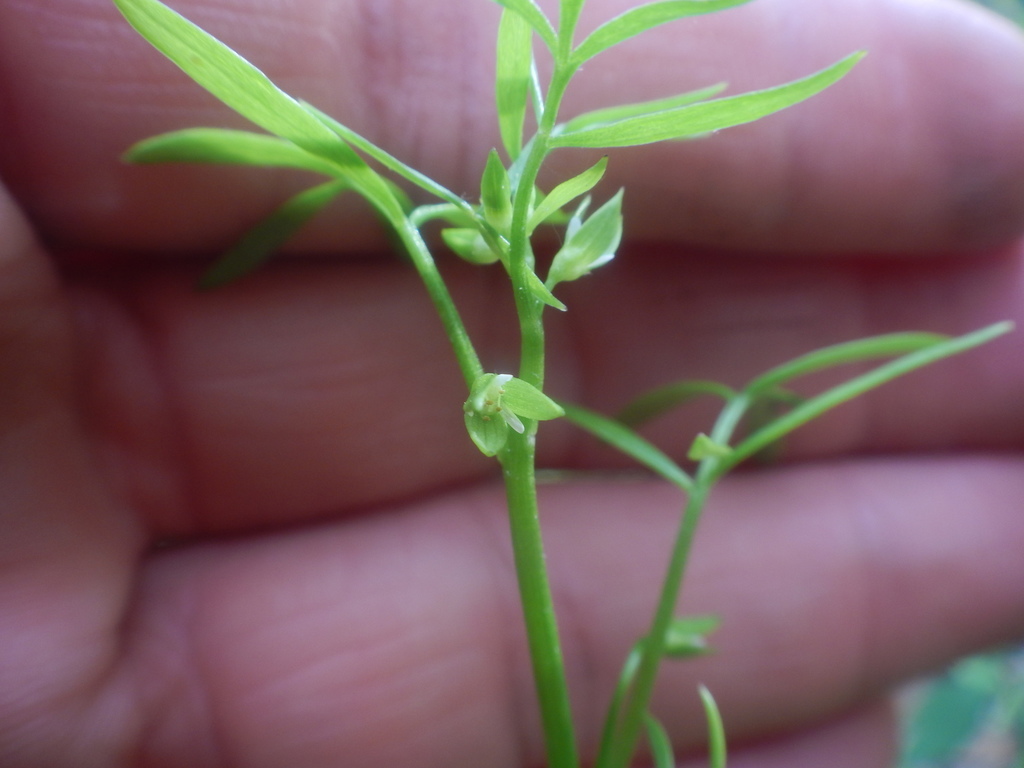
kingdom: Plantae
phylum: Tracheophyta
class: Magnoliopsida
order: Brassicales
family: Limnanthaceae
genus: Floerkea
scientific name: Floerkea proserpinacoides
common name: False mermaid
